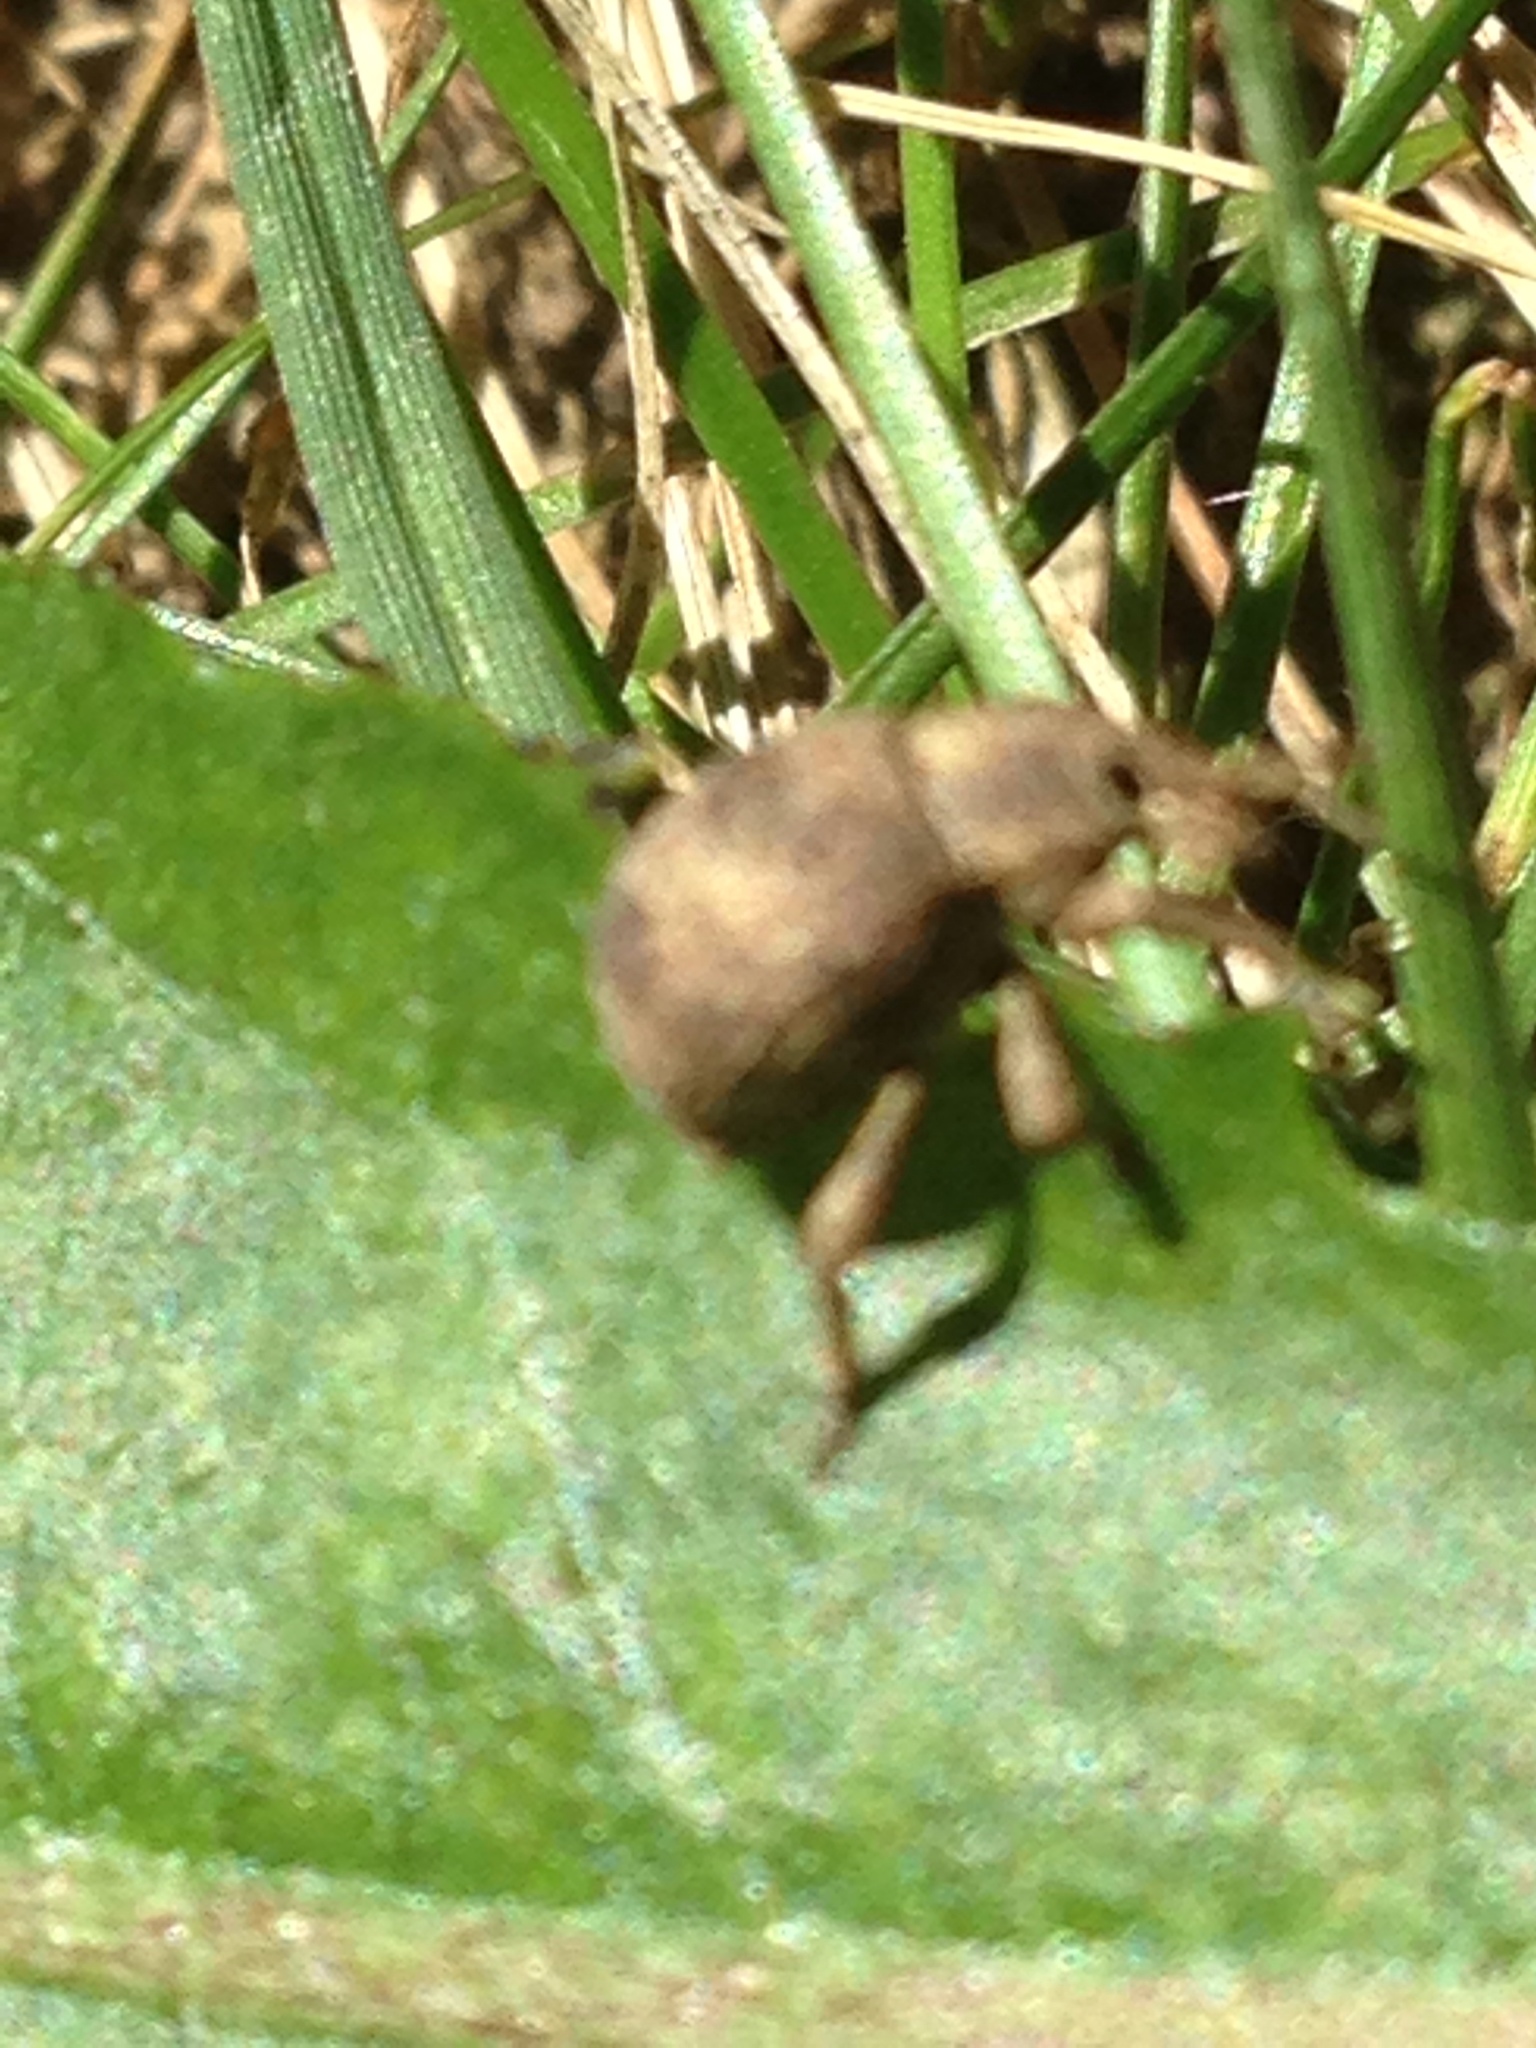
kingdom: Animalia
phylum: Arthropoda
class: Insecta
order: Coleoptera
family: Curculionidae
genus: Pseudocneorhinus
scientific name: Pseudocneorhinus bifasciatus
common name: Two-banded japanese weevil
